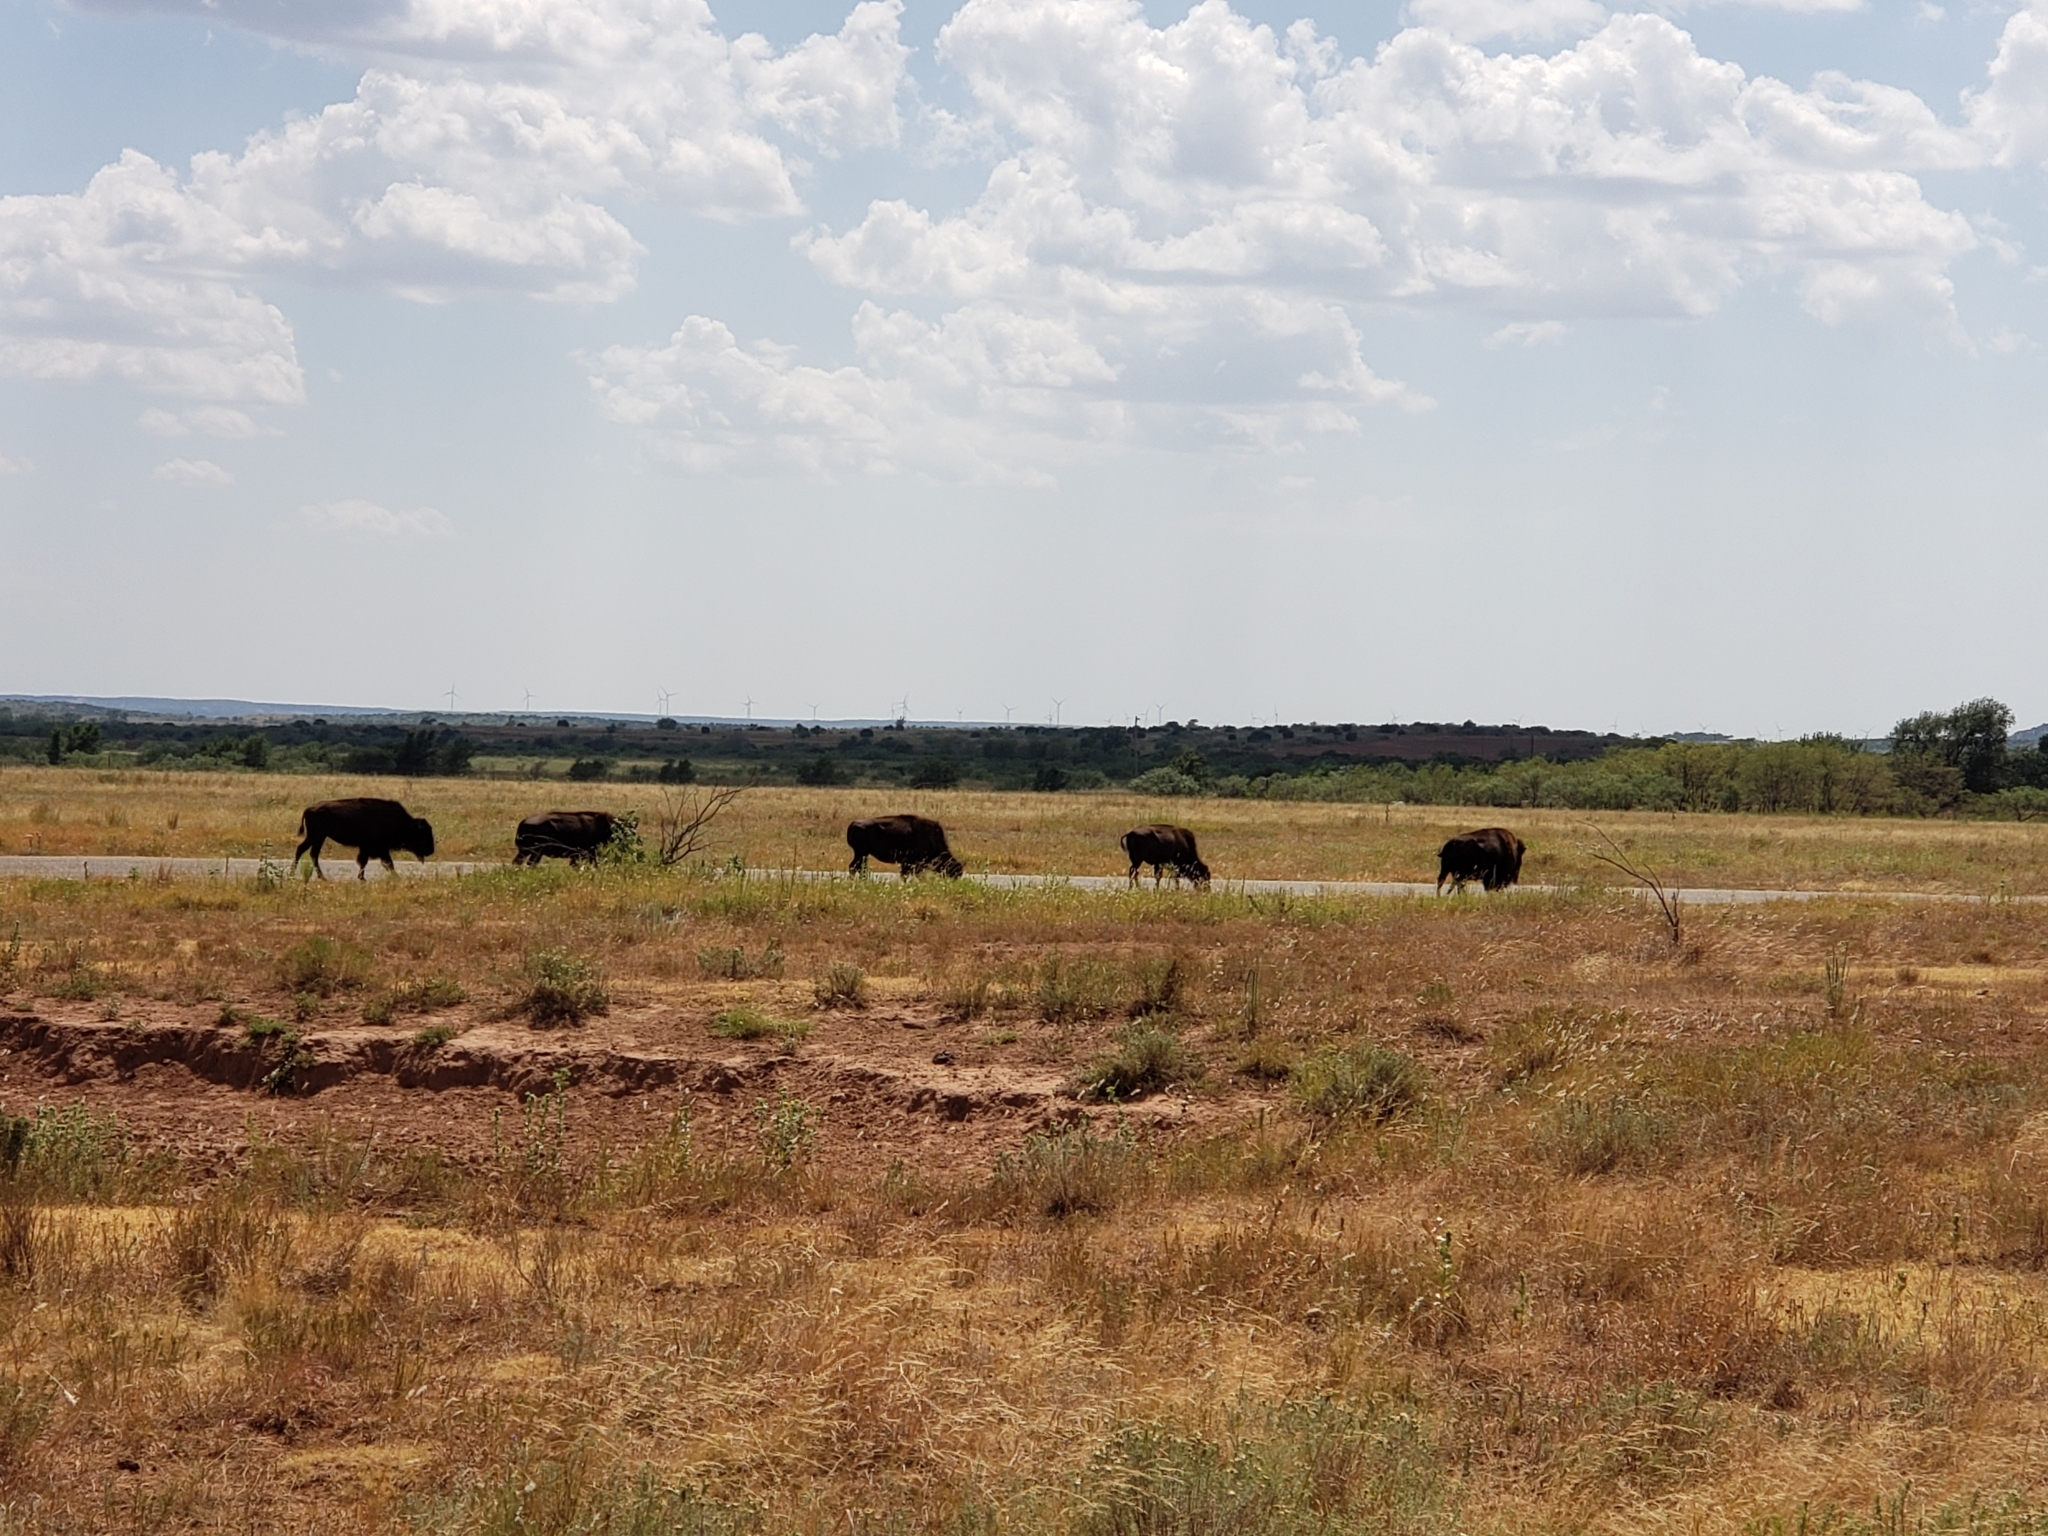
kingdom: Animalia
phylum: Chordata
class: Mammalia
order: Artiodactyla
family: Bovidae
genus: Bison
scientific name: Bison bison
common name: American bison
